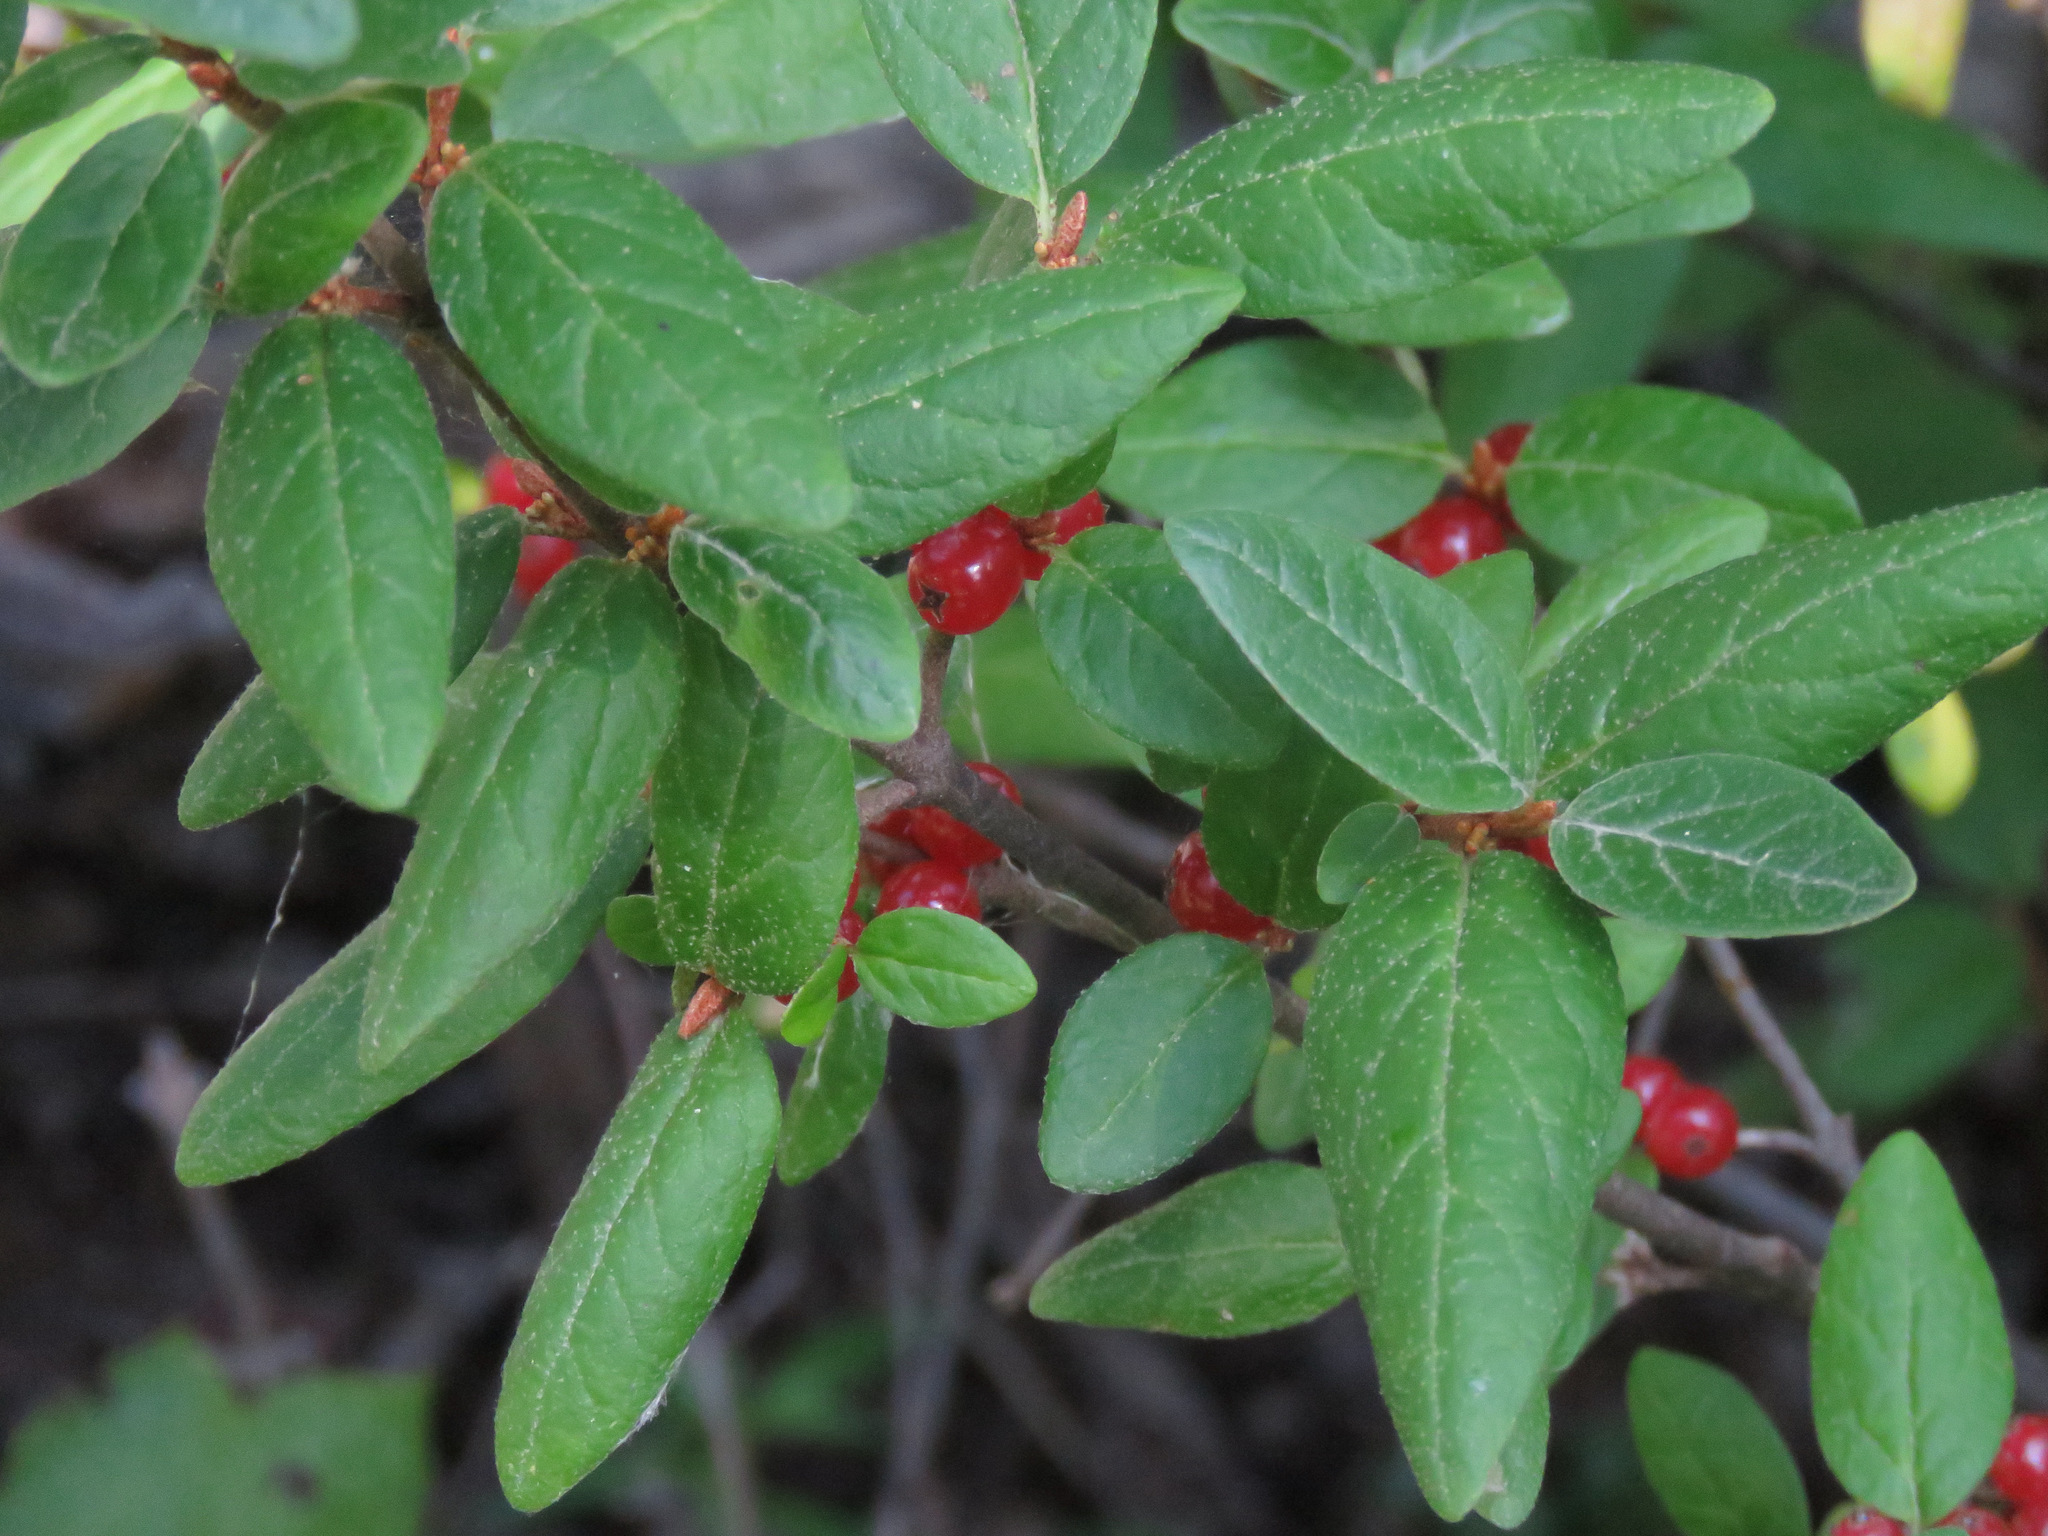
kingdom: Plantae
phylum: Tracheophyta
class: Magnoliopsida
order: Rosales
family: Elaeagnaceae
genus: Shepherdia
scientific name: Shepherdia canadensis
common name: Soapberry
